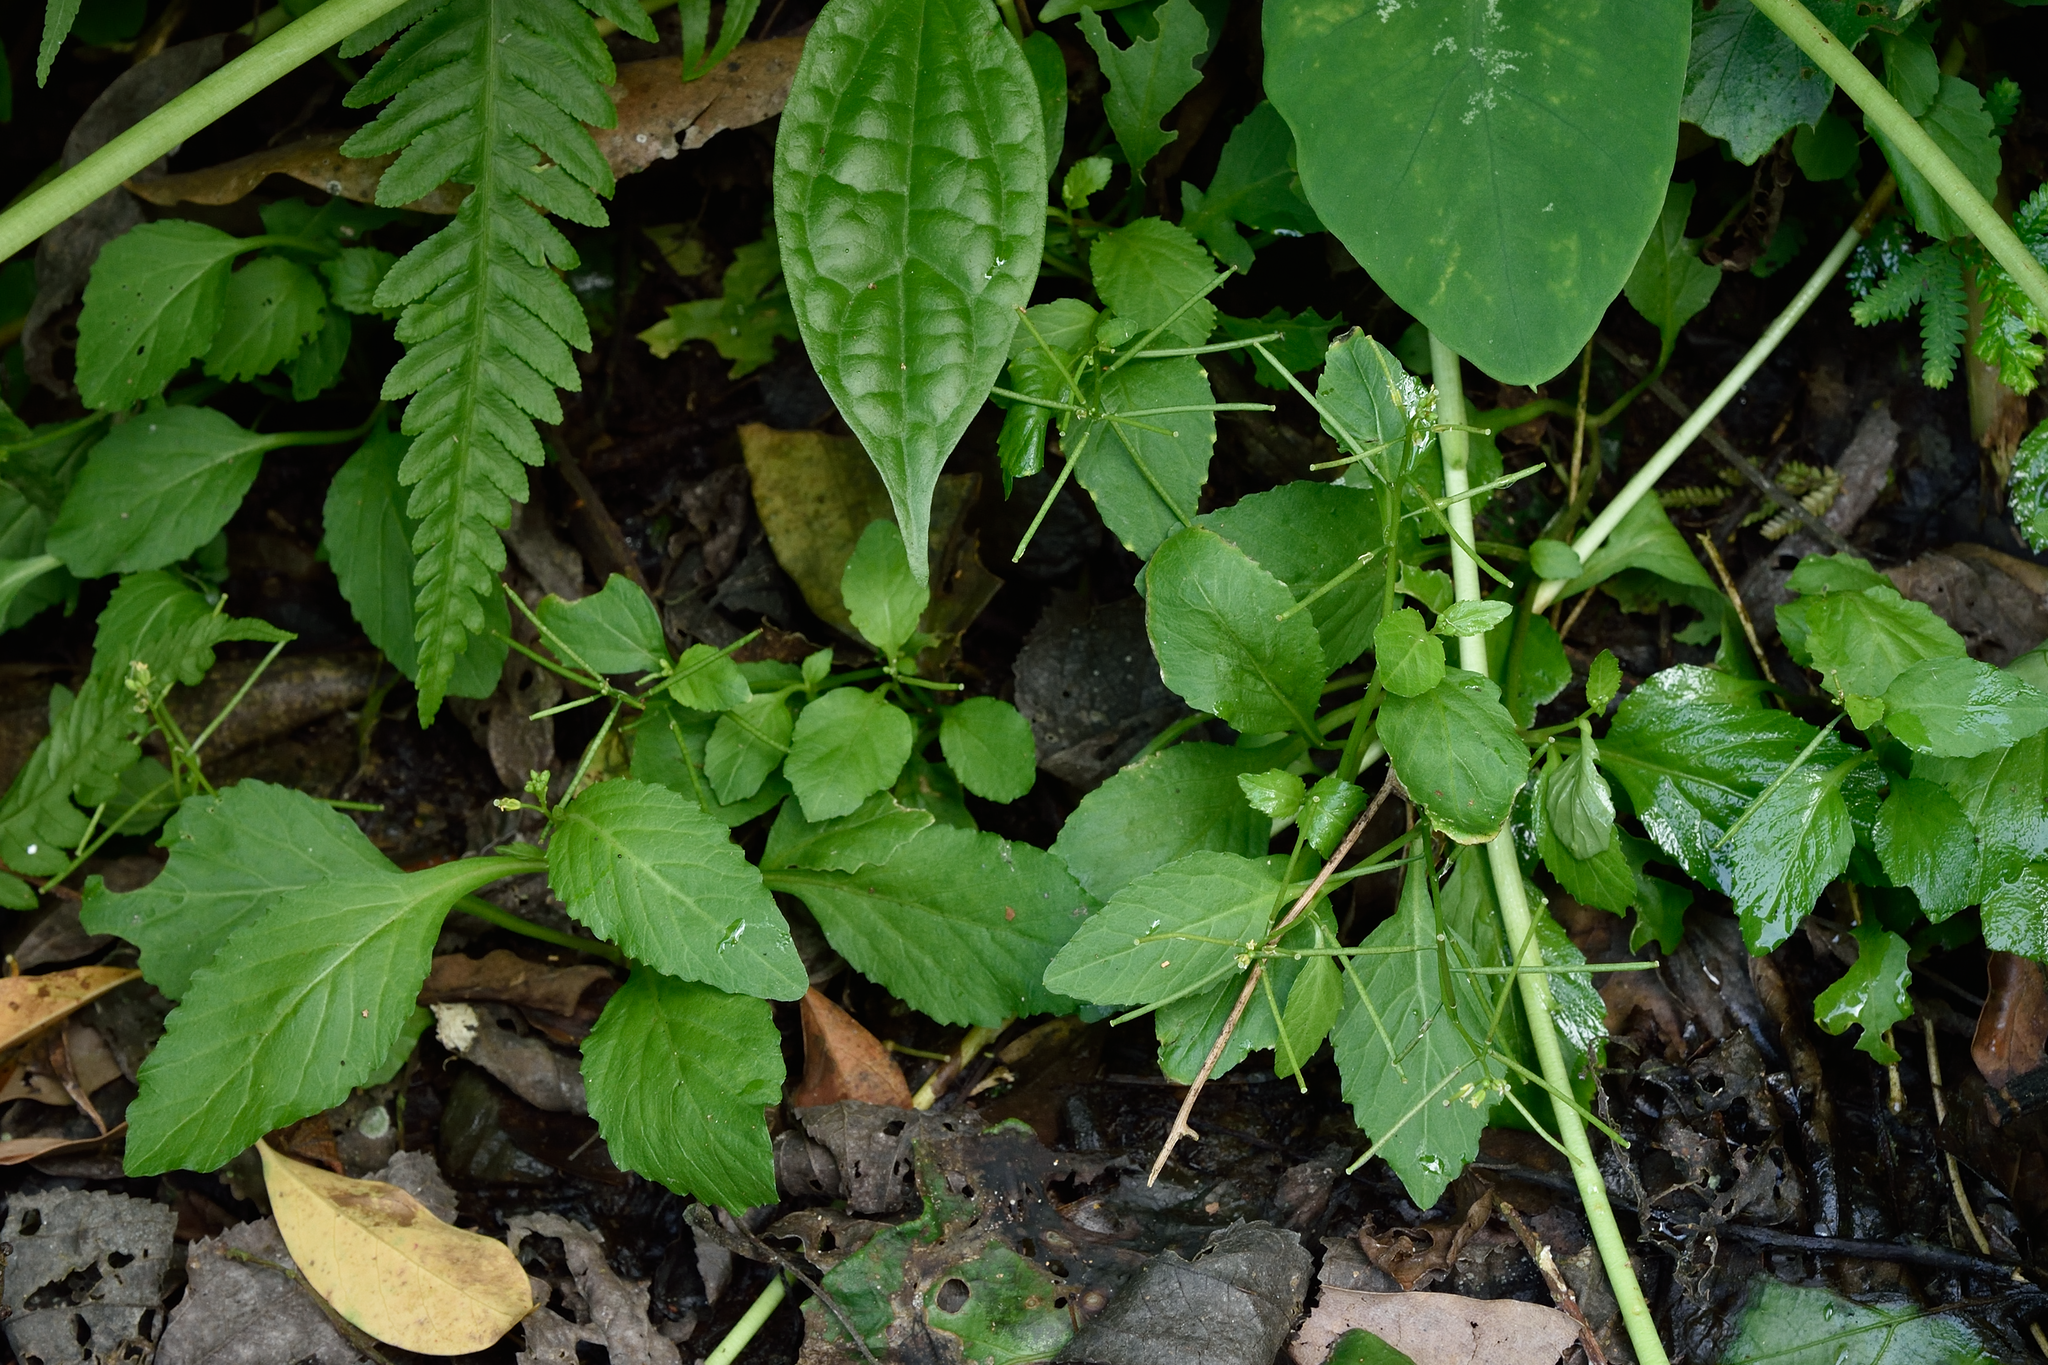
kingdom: Plantae
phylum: Tracheophyta
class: Magnoliopsida
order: Brassicales
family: Brassicaceae
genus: Rorippa
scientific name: Rorippa indica
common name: Variableleaf yellowcress
